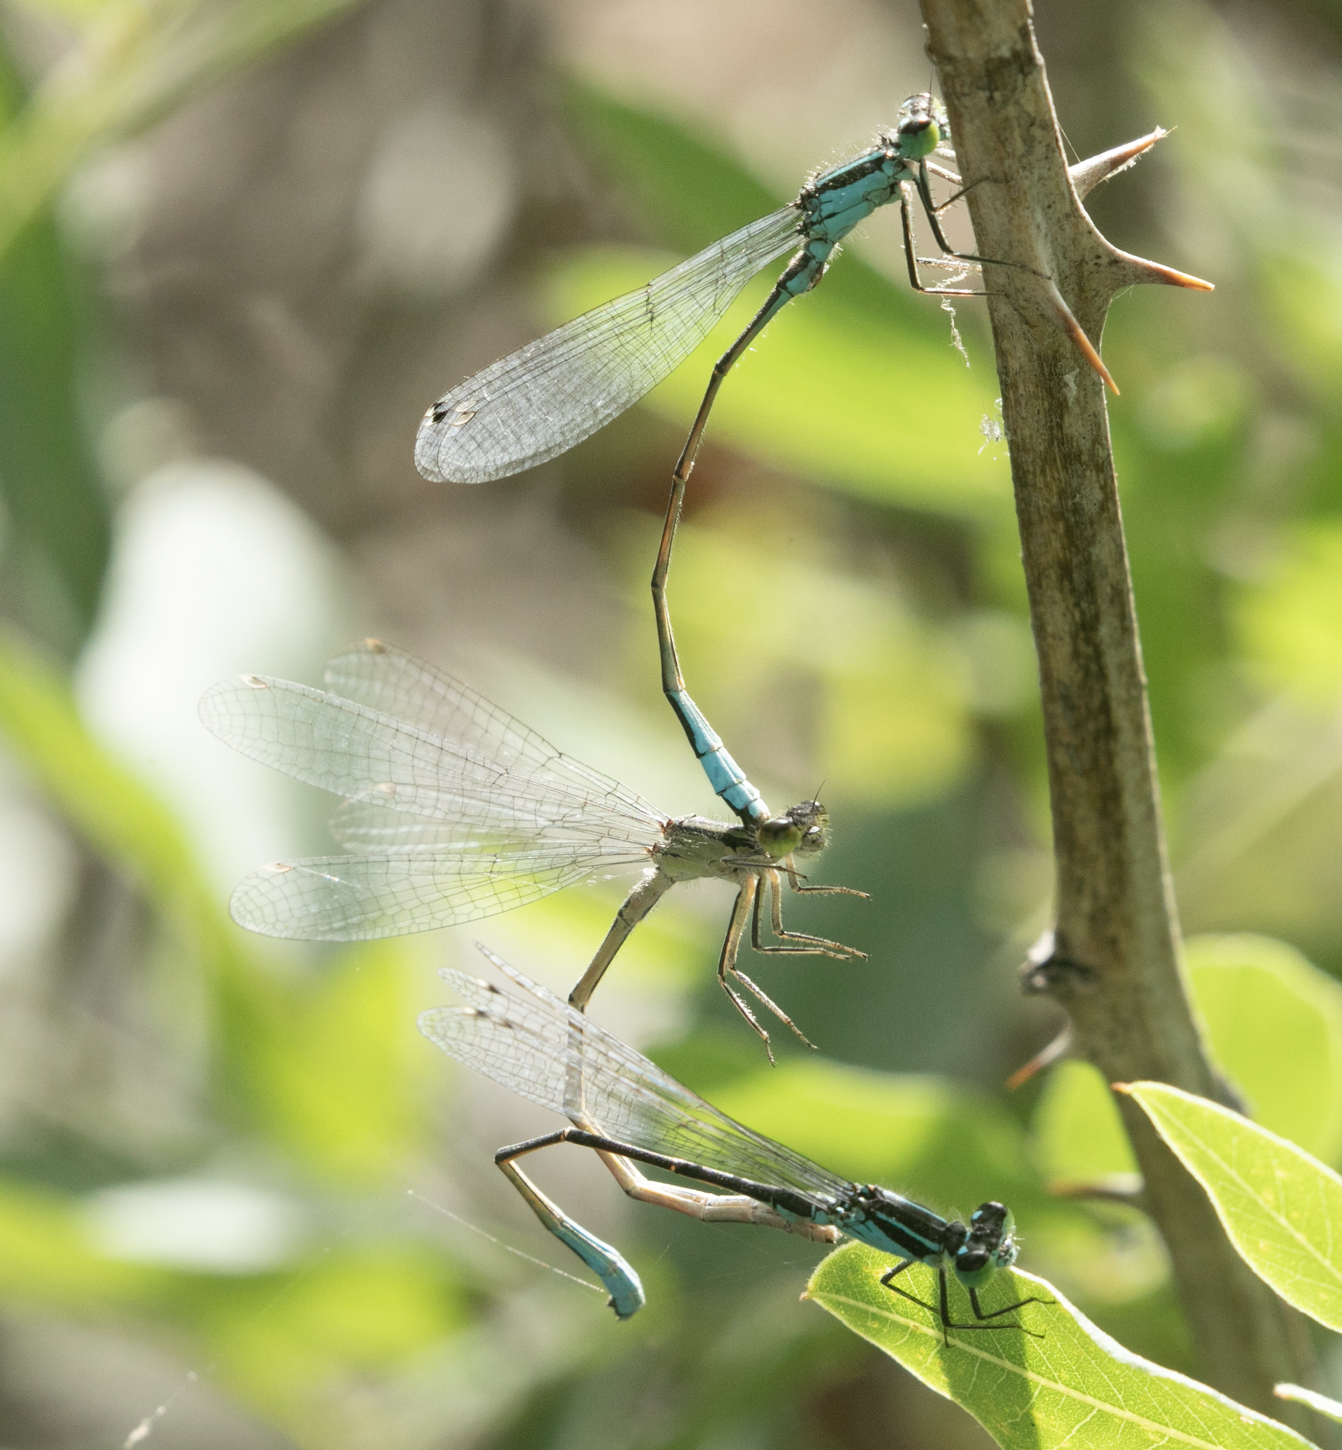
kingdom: Animalia
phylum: Arthropoda
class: Insecta
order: Odonata
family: Coenagrionidae
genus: Ischnura
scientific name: Ischnura elegans
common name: Blue-tailed damselfly
